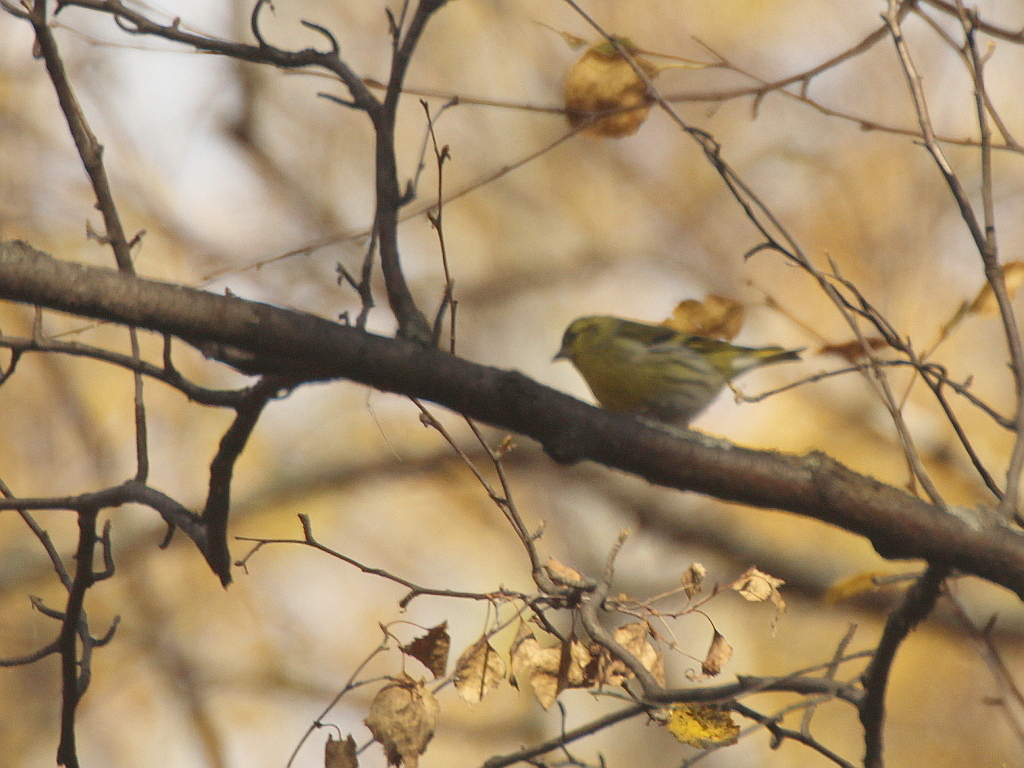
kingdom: Animalia
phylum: Chordata
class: Aves
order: Passeriformes
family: Fringillidae
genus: Spinus
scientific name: Spinus spinus
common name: Eurasian siskin
